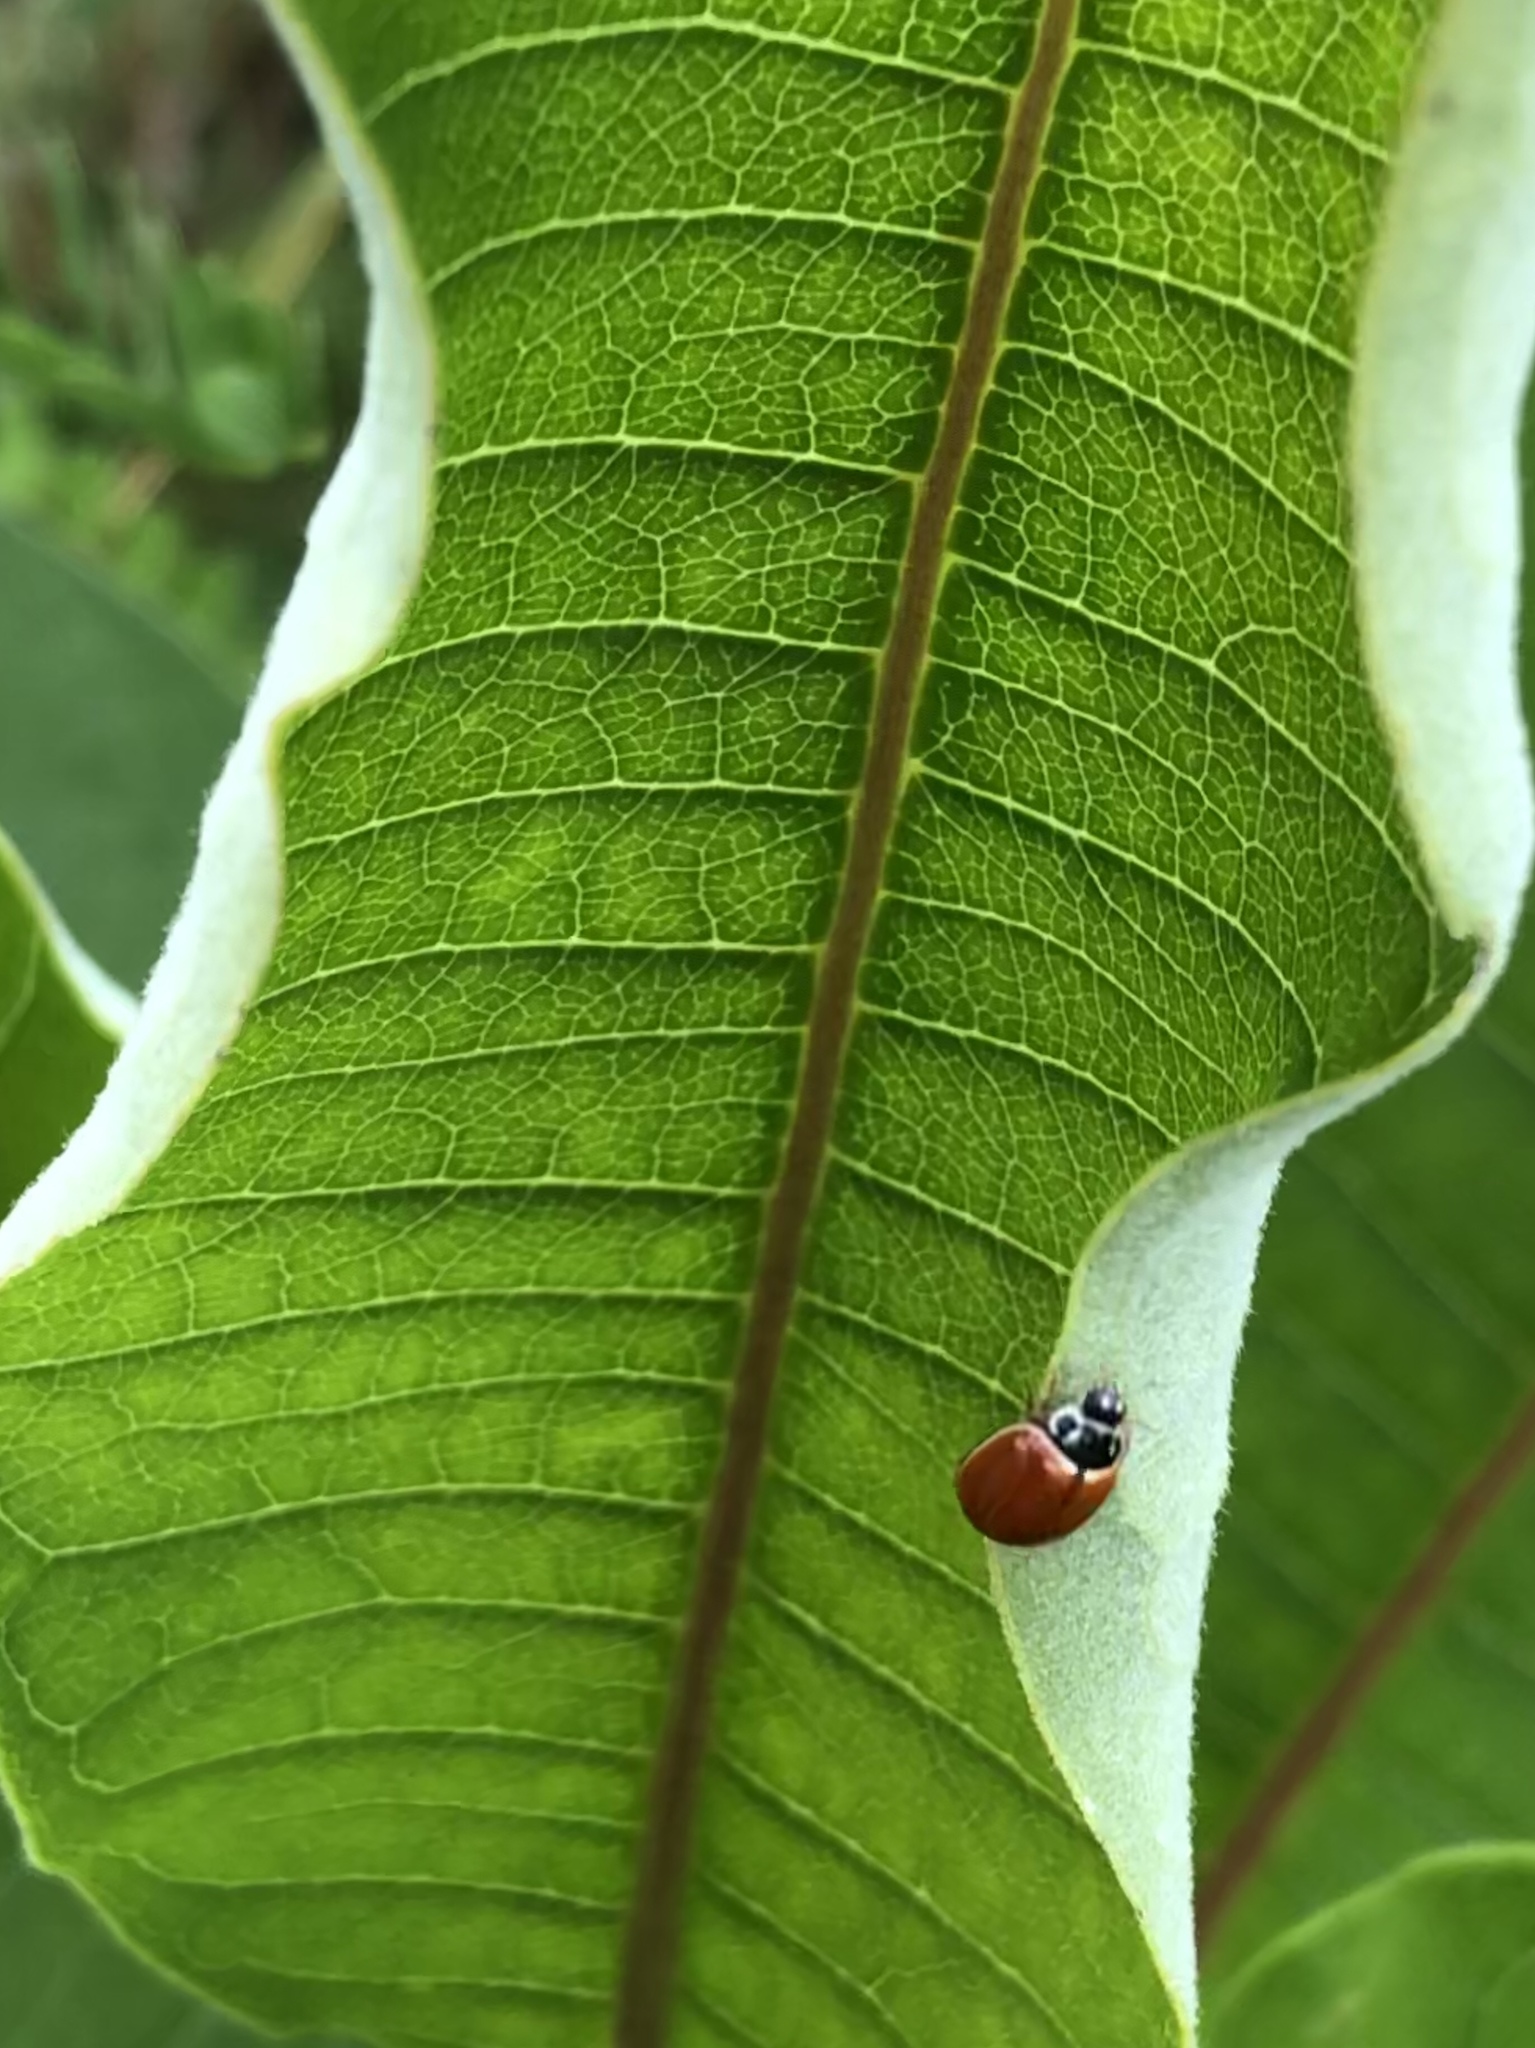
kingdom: Animalia
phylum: Arthropoda
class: Insecta
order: Coleoptera
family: Coccinellidae
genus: Cycloneda
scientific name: Cycloneda munda
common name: Polished lady beetle
